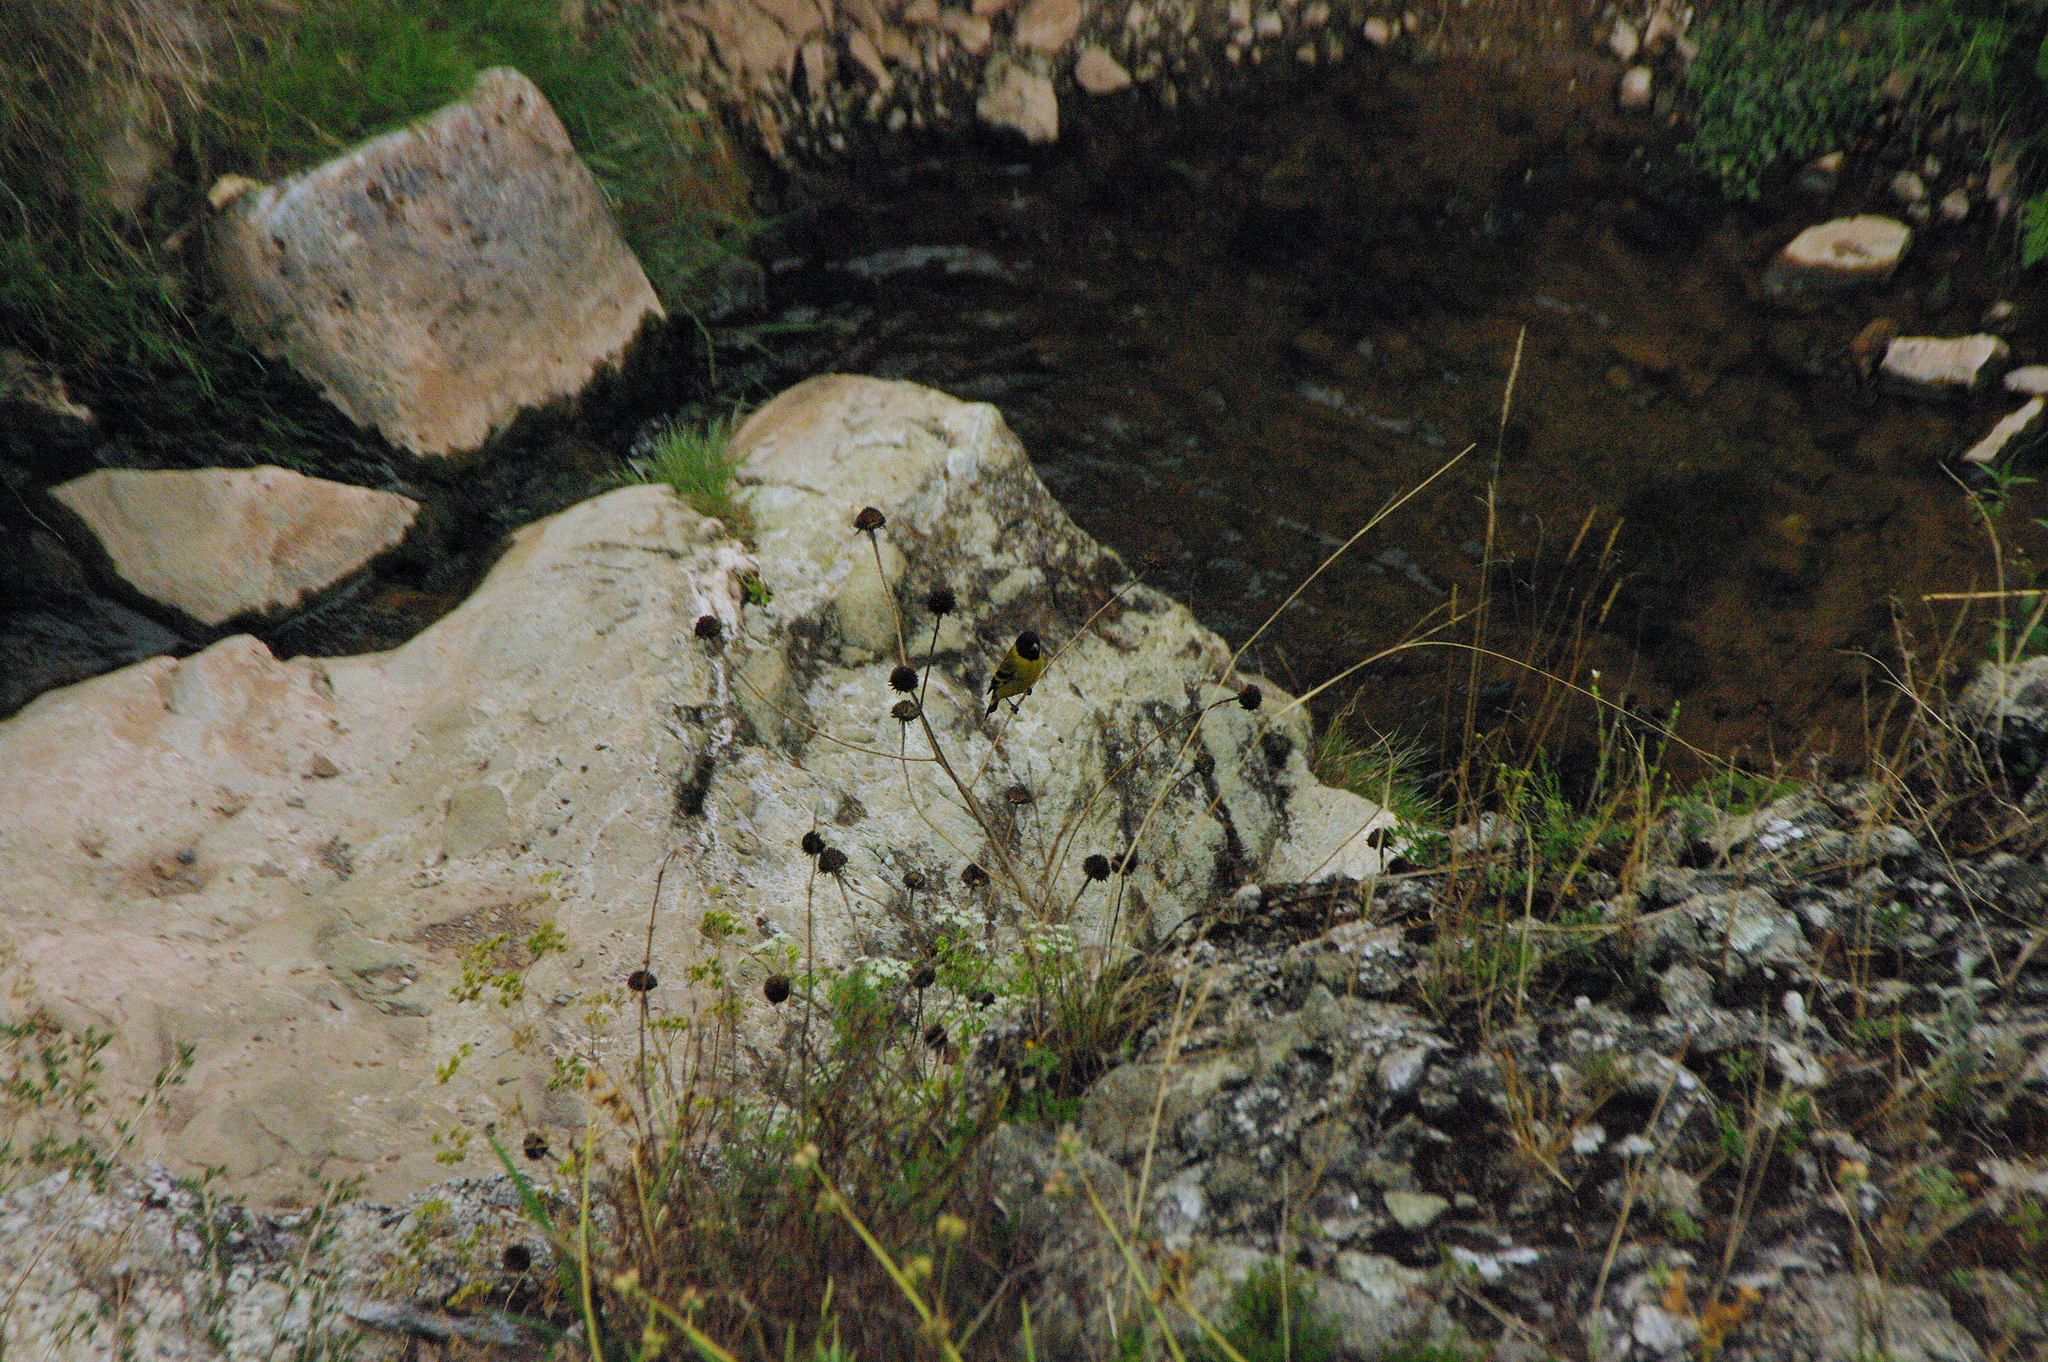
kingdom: Animalia
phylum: Chordata
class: Aves
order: Passeriformes
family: Fringillidae
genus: Spinus
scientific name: Spinus magellanicus
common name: Hooded siskin
